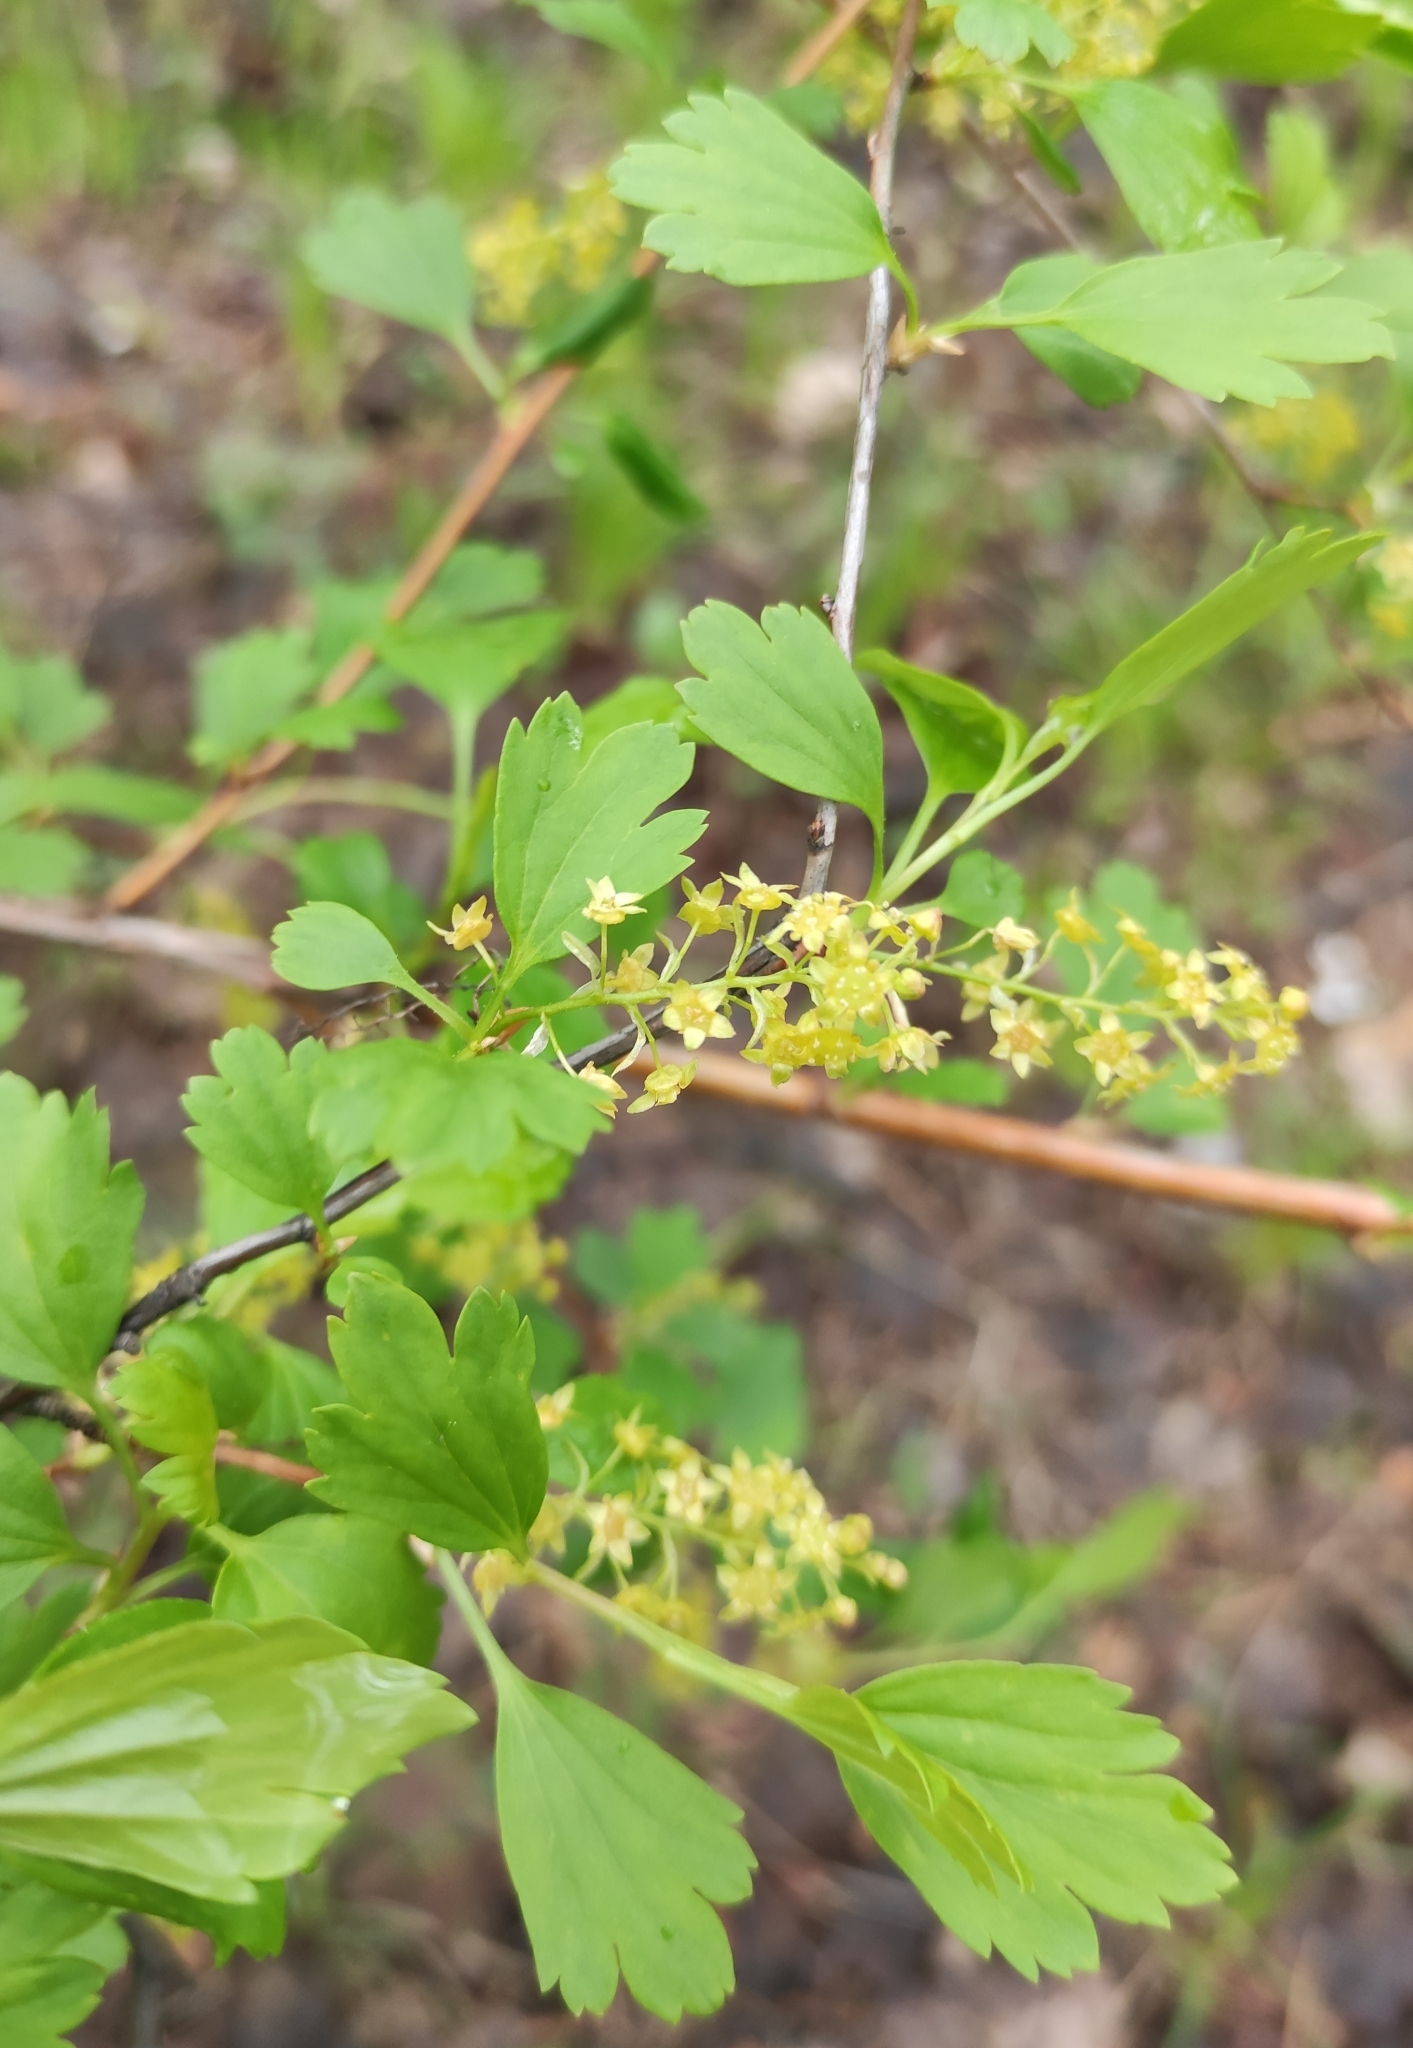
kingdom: Plantae
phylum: Tracheophyta
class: Magnoliopsida
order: Saxifragales
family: Grossulariaceae
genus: Ribes
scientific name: Ribes pulchellum
